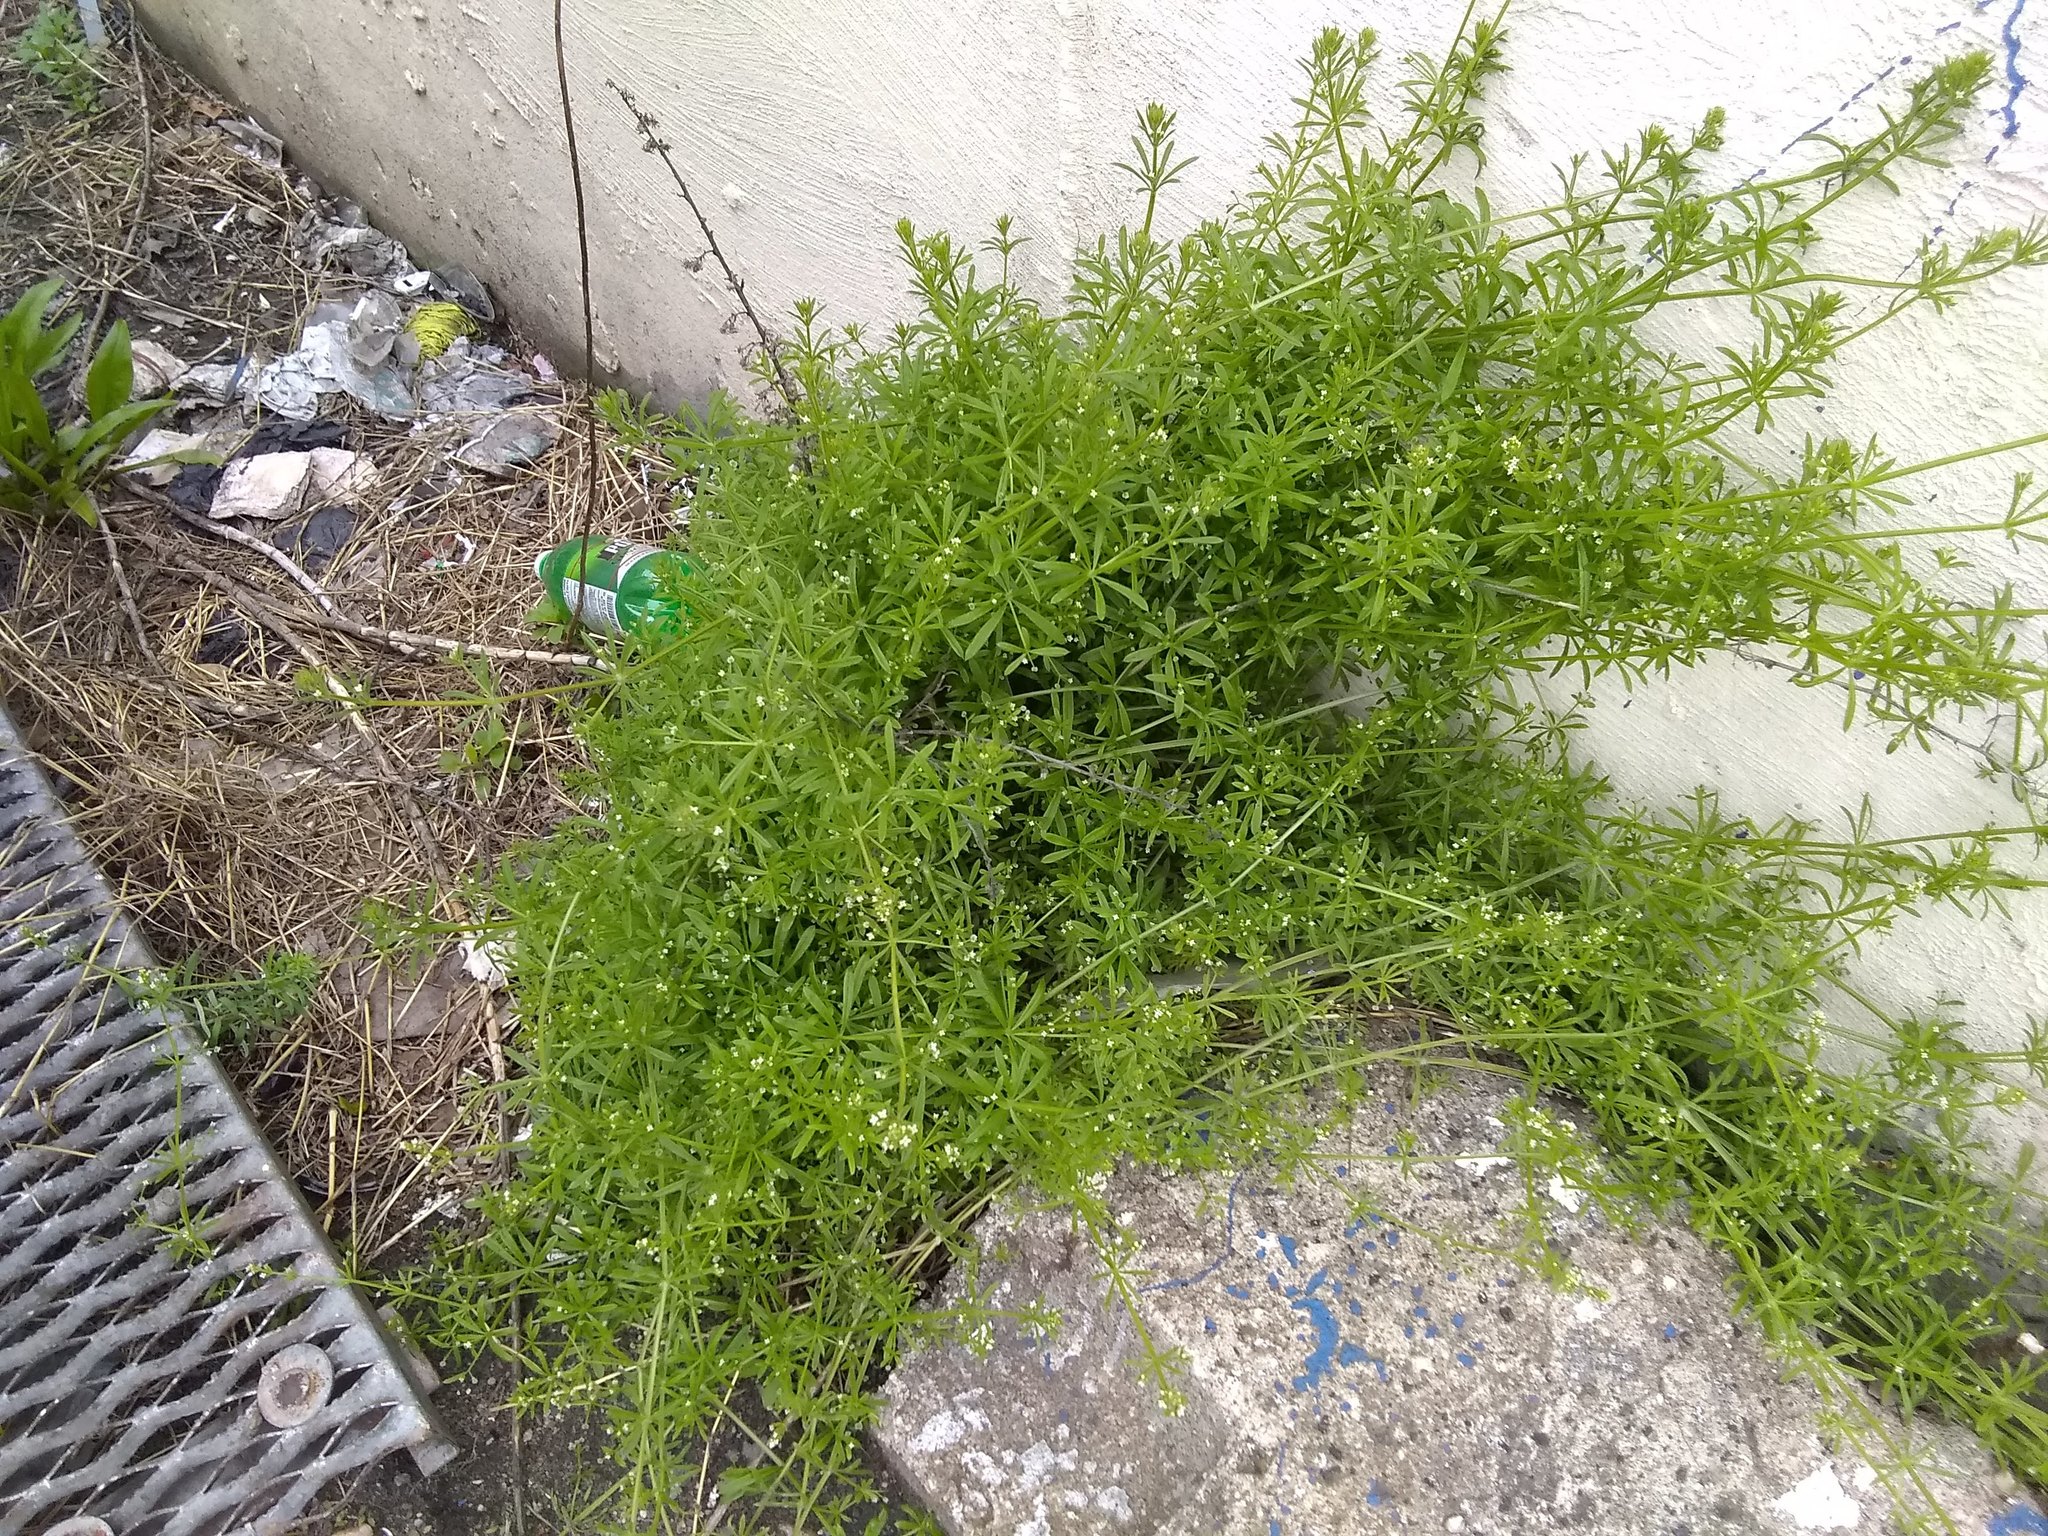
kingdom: Plantae
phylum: Tracheophyta
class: Magnoliopsida
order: Gentianales
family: Rubiaceae
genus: Galium
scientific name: Galium aparine
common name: Cleavers
